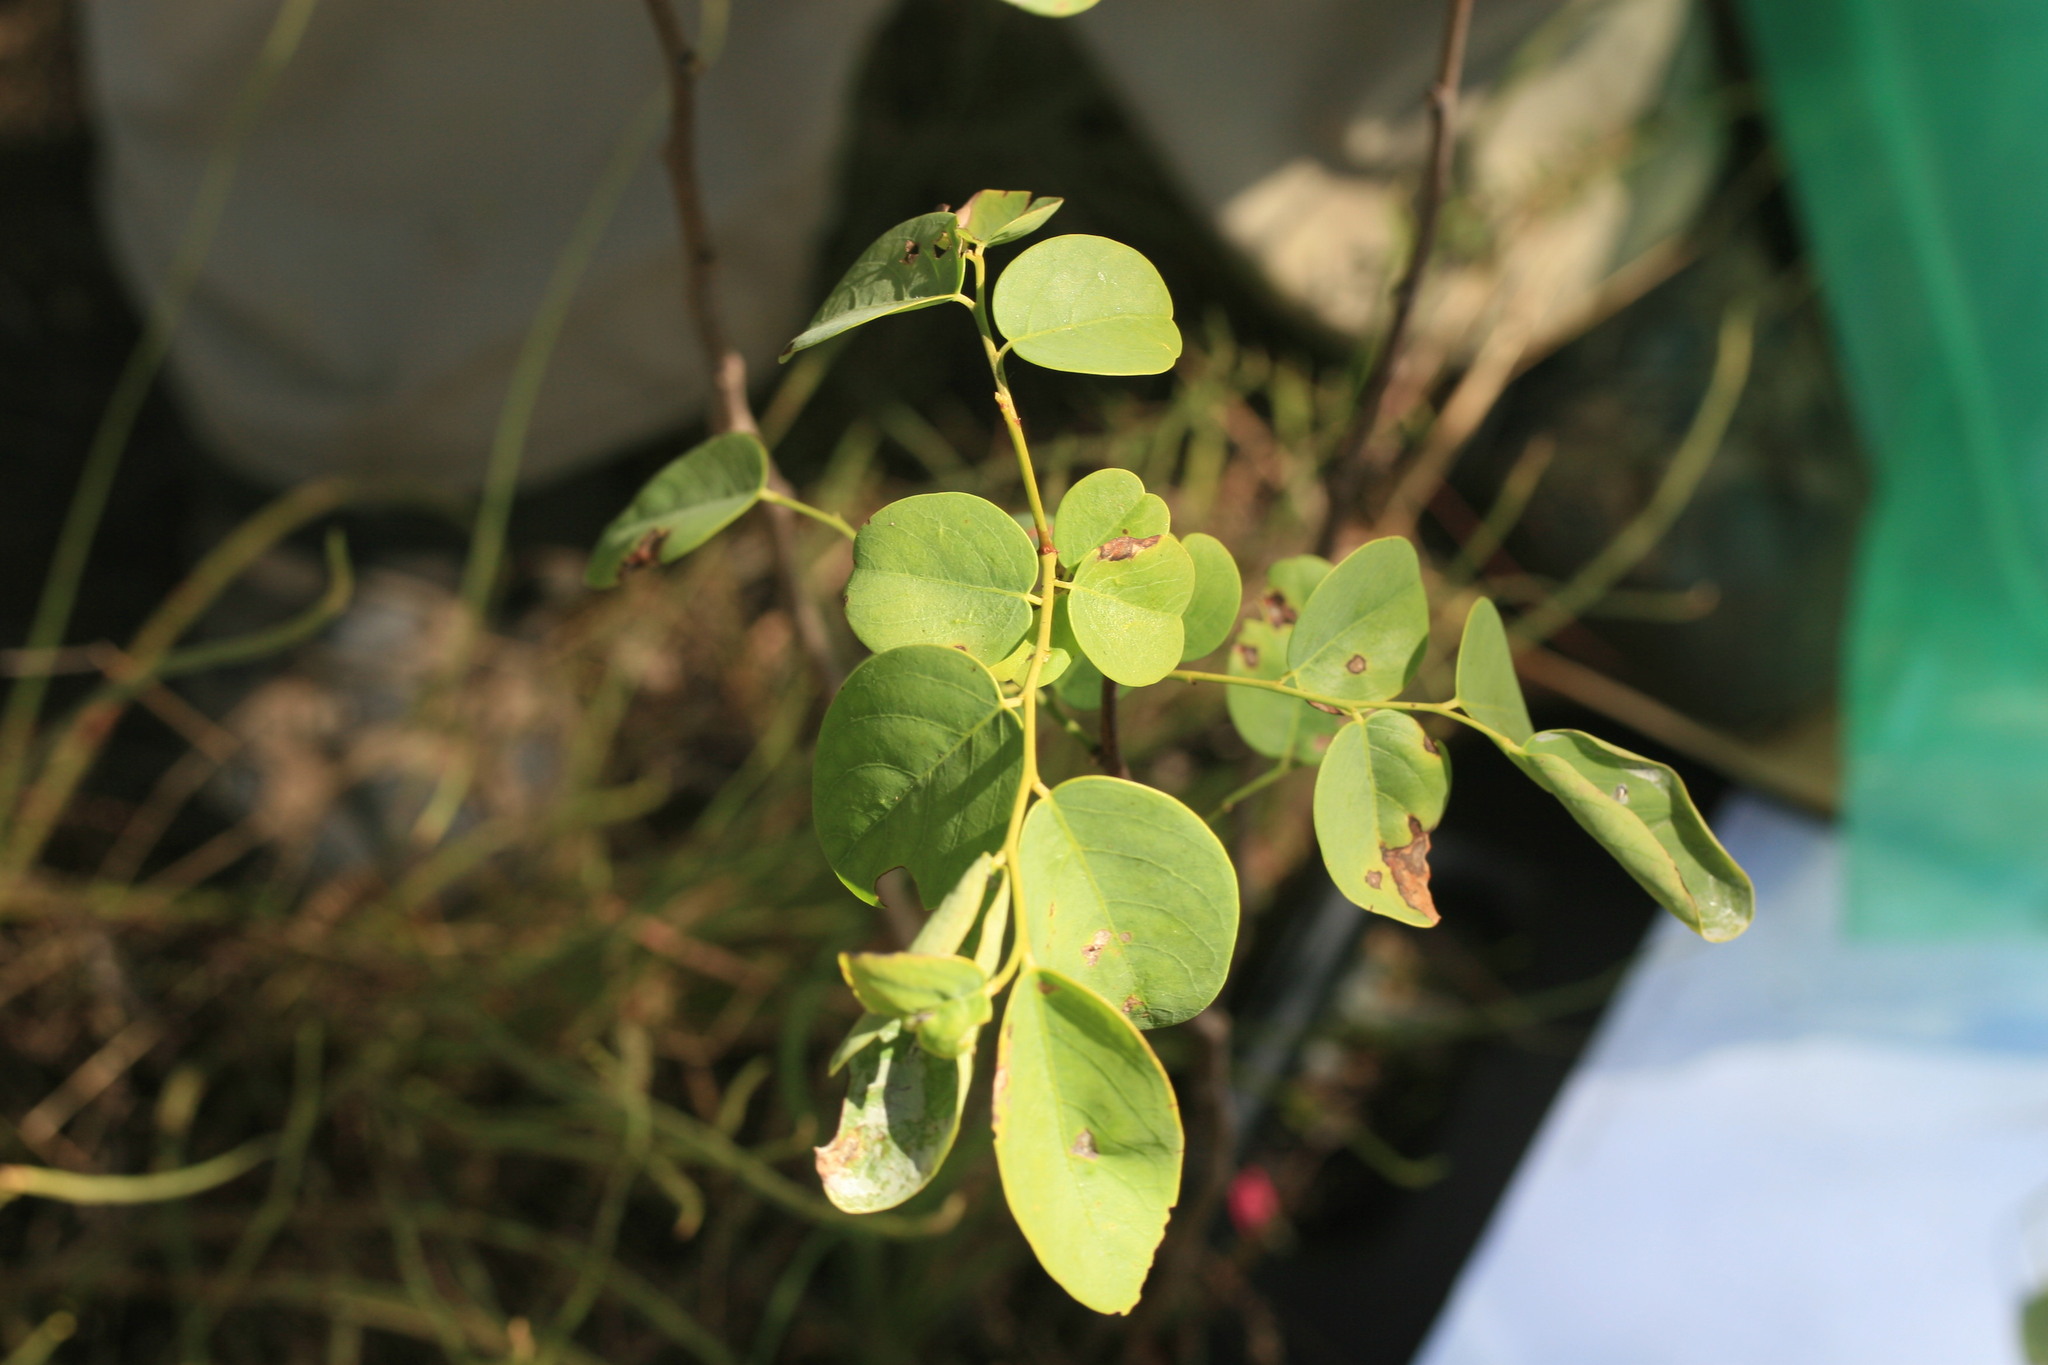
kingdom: Plantae
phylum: Tracheophyta
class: Magnoliopsida
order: Malpighiales
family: Phyllanthaceae
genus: Breynia
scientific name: Breynia cernua
